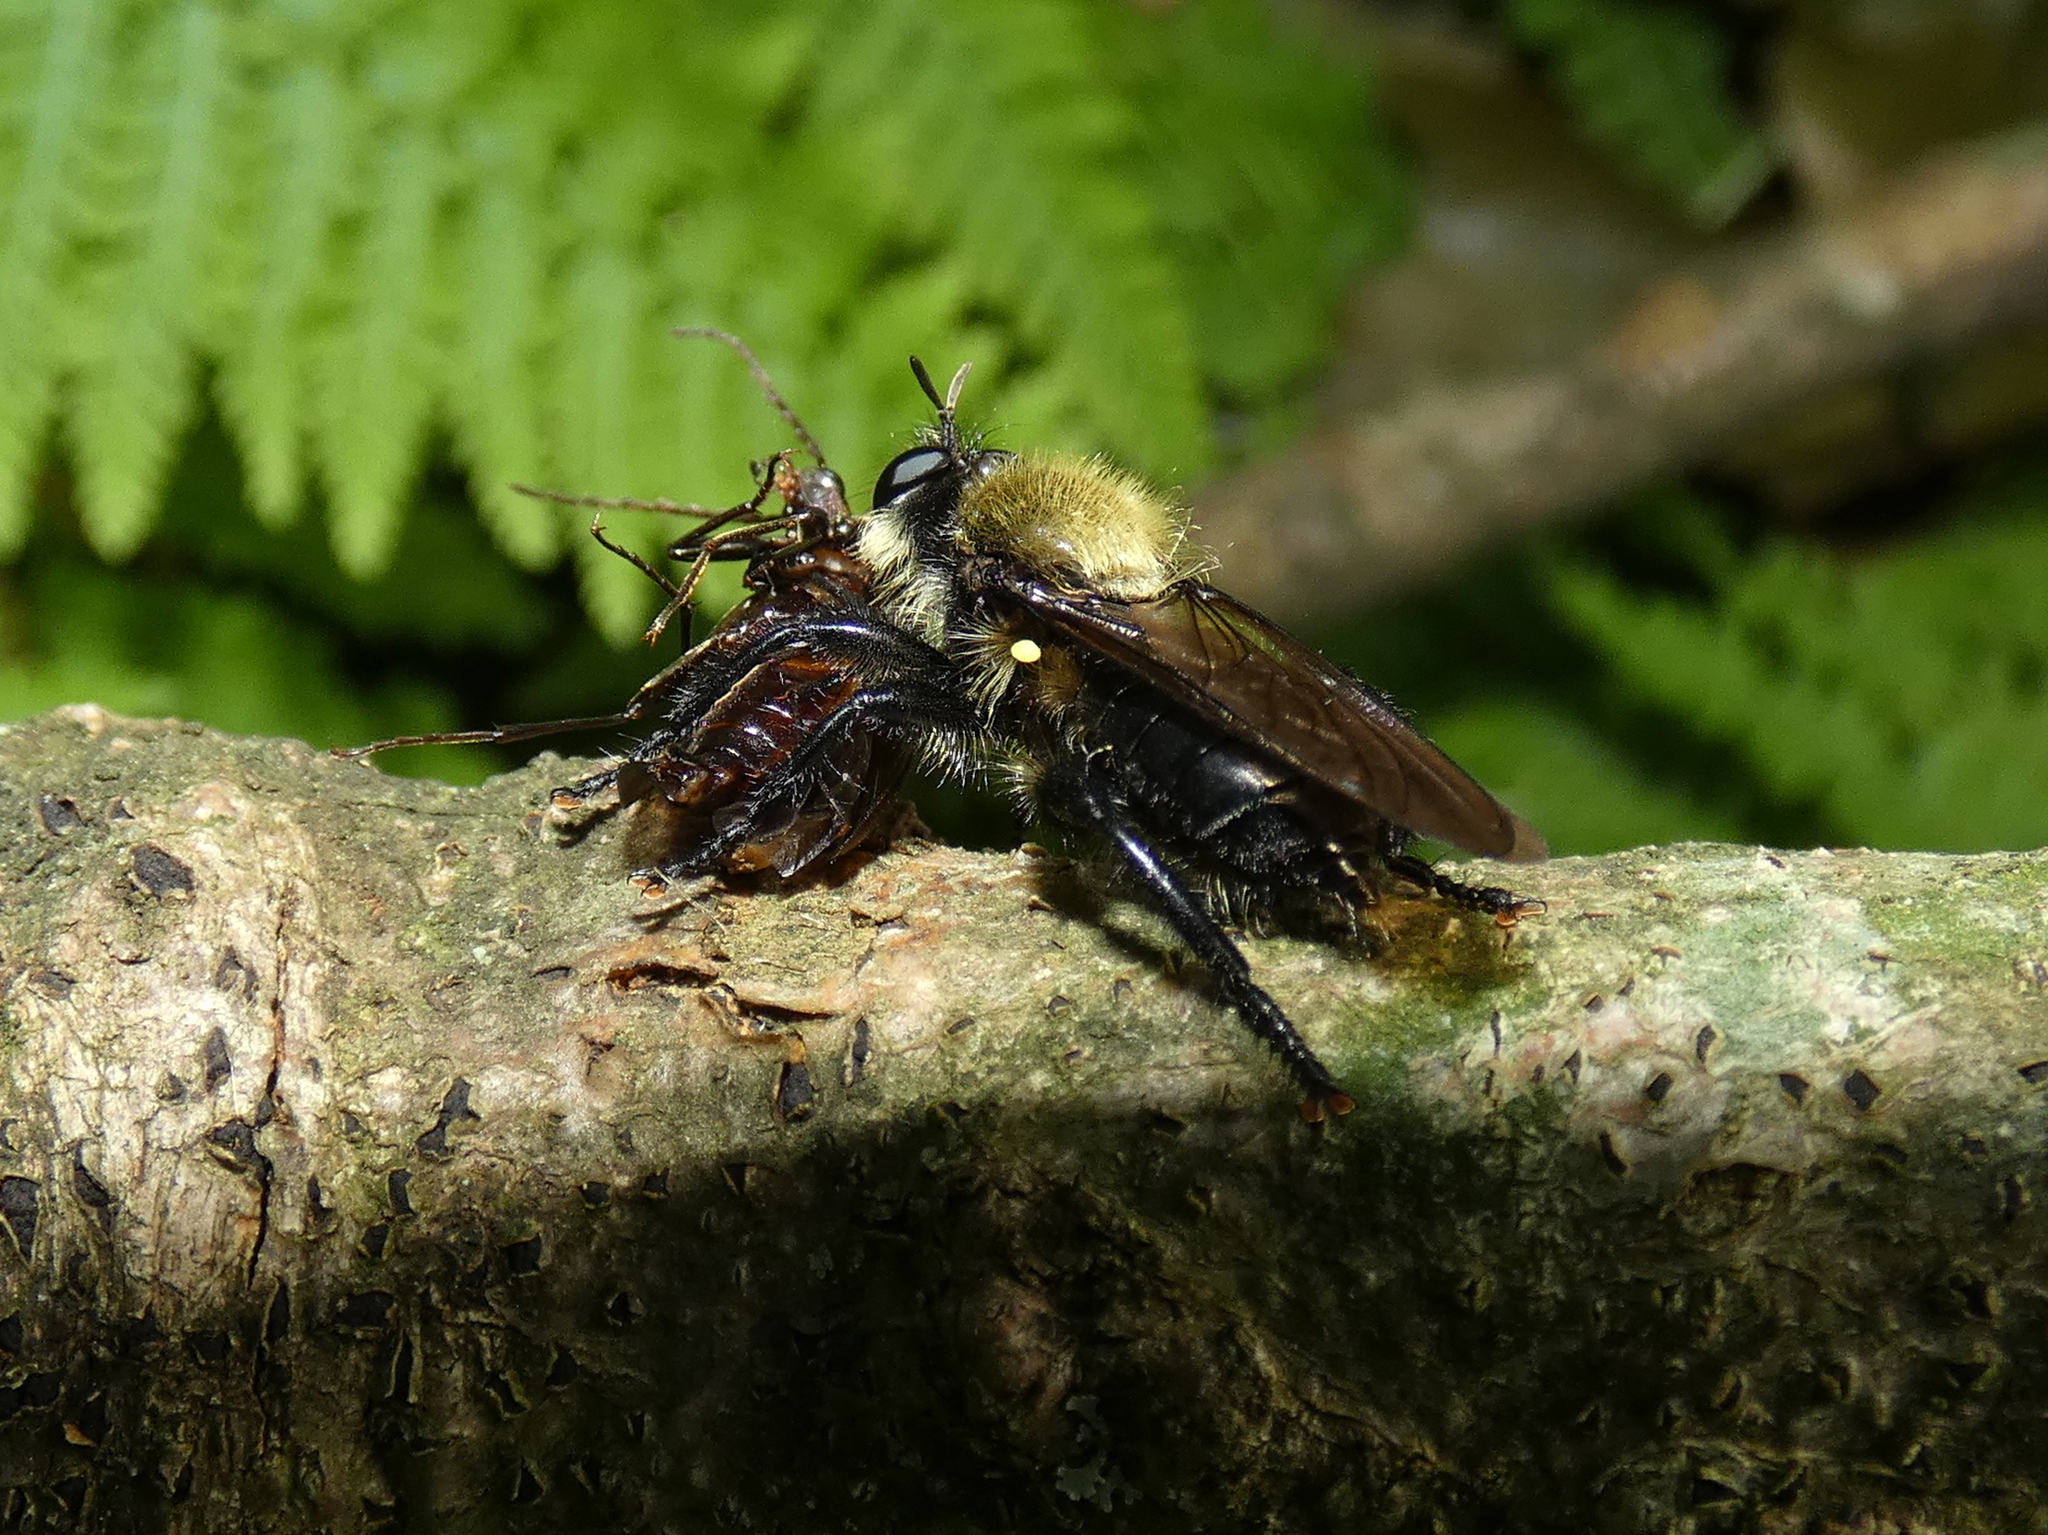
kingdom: Animalia
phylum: Arthropoda
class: Insecta
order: Diptera
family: Asilidae
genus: Laphria
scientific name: Laphria flavicollis
